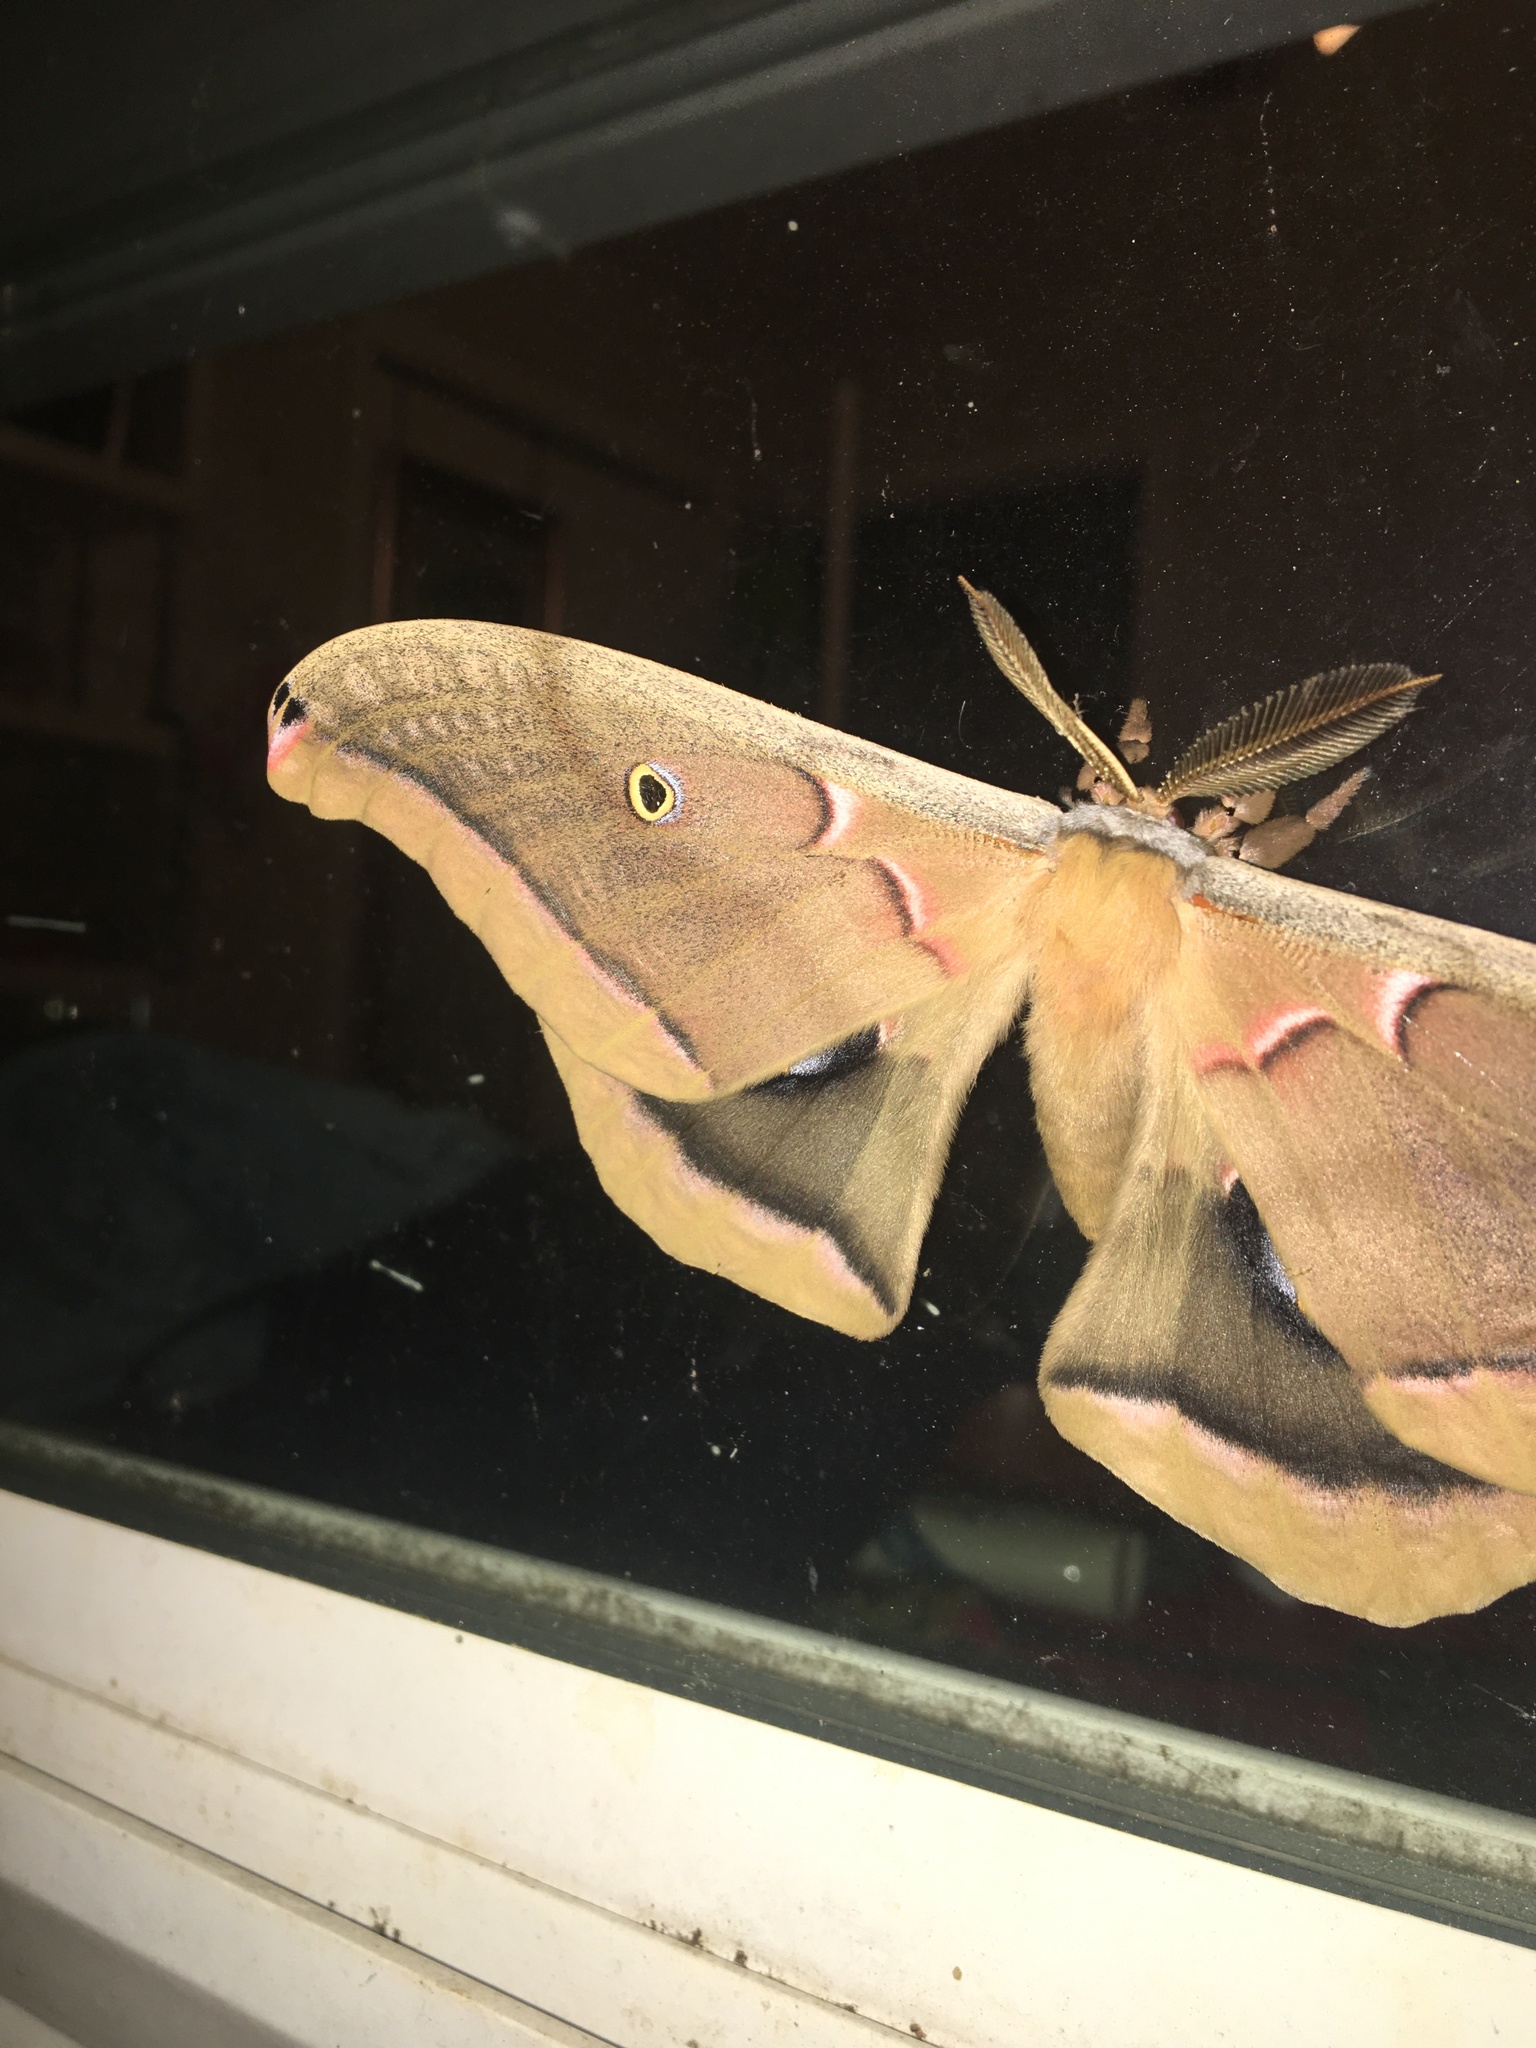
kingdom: Animalia
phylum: Arthropoda
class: Insecta
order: Lepidoptera
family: Saturniidae
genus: Antheraea
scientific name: Antheraea polyphemus
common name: Polyphemus moth
